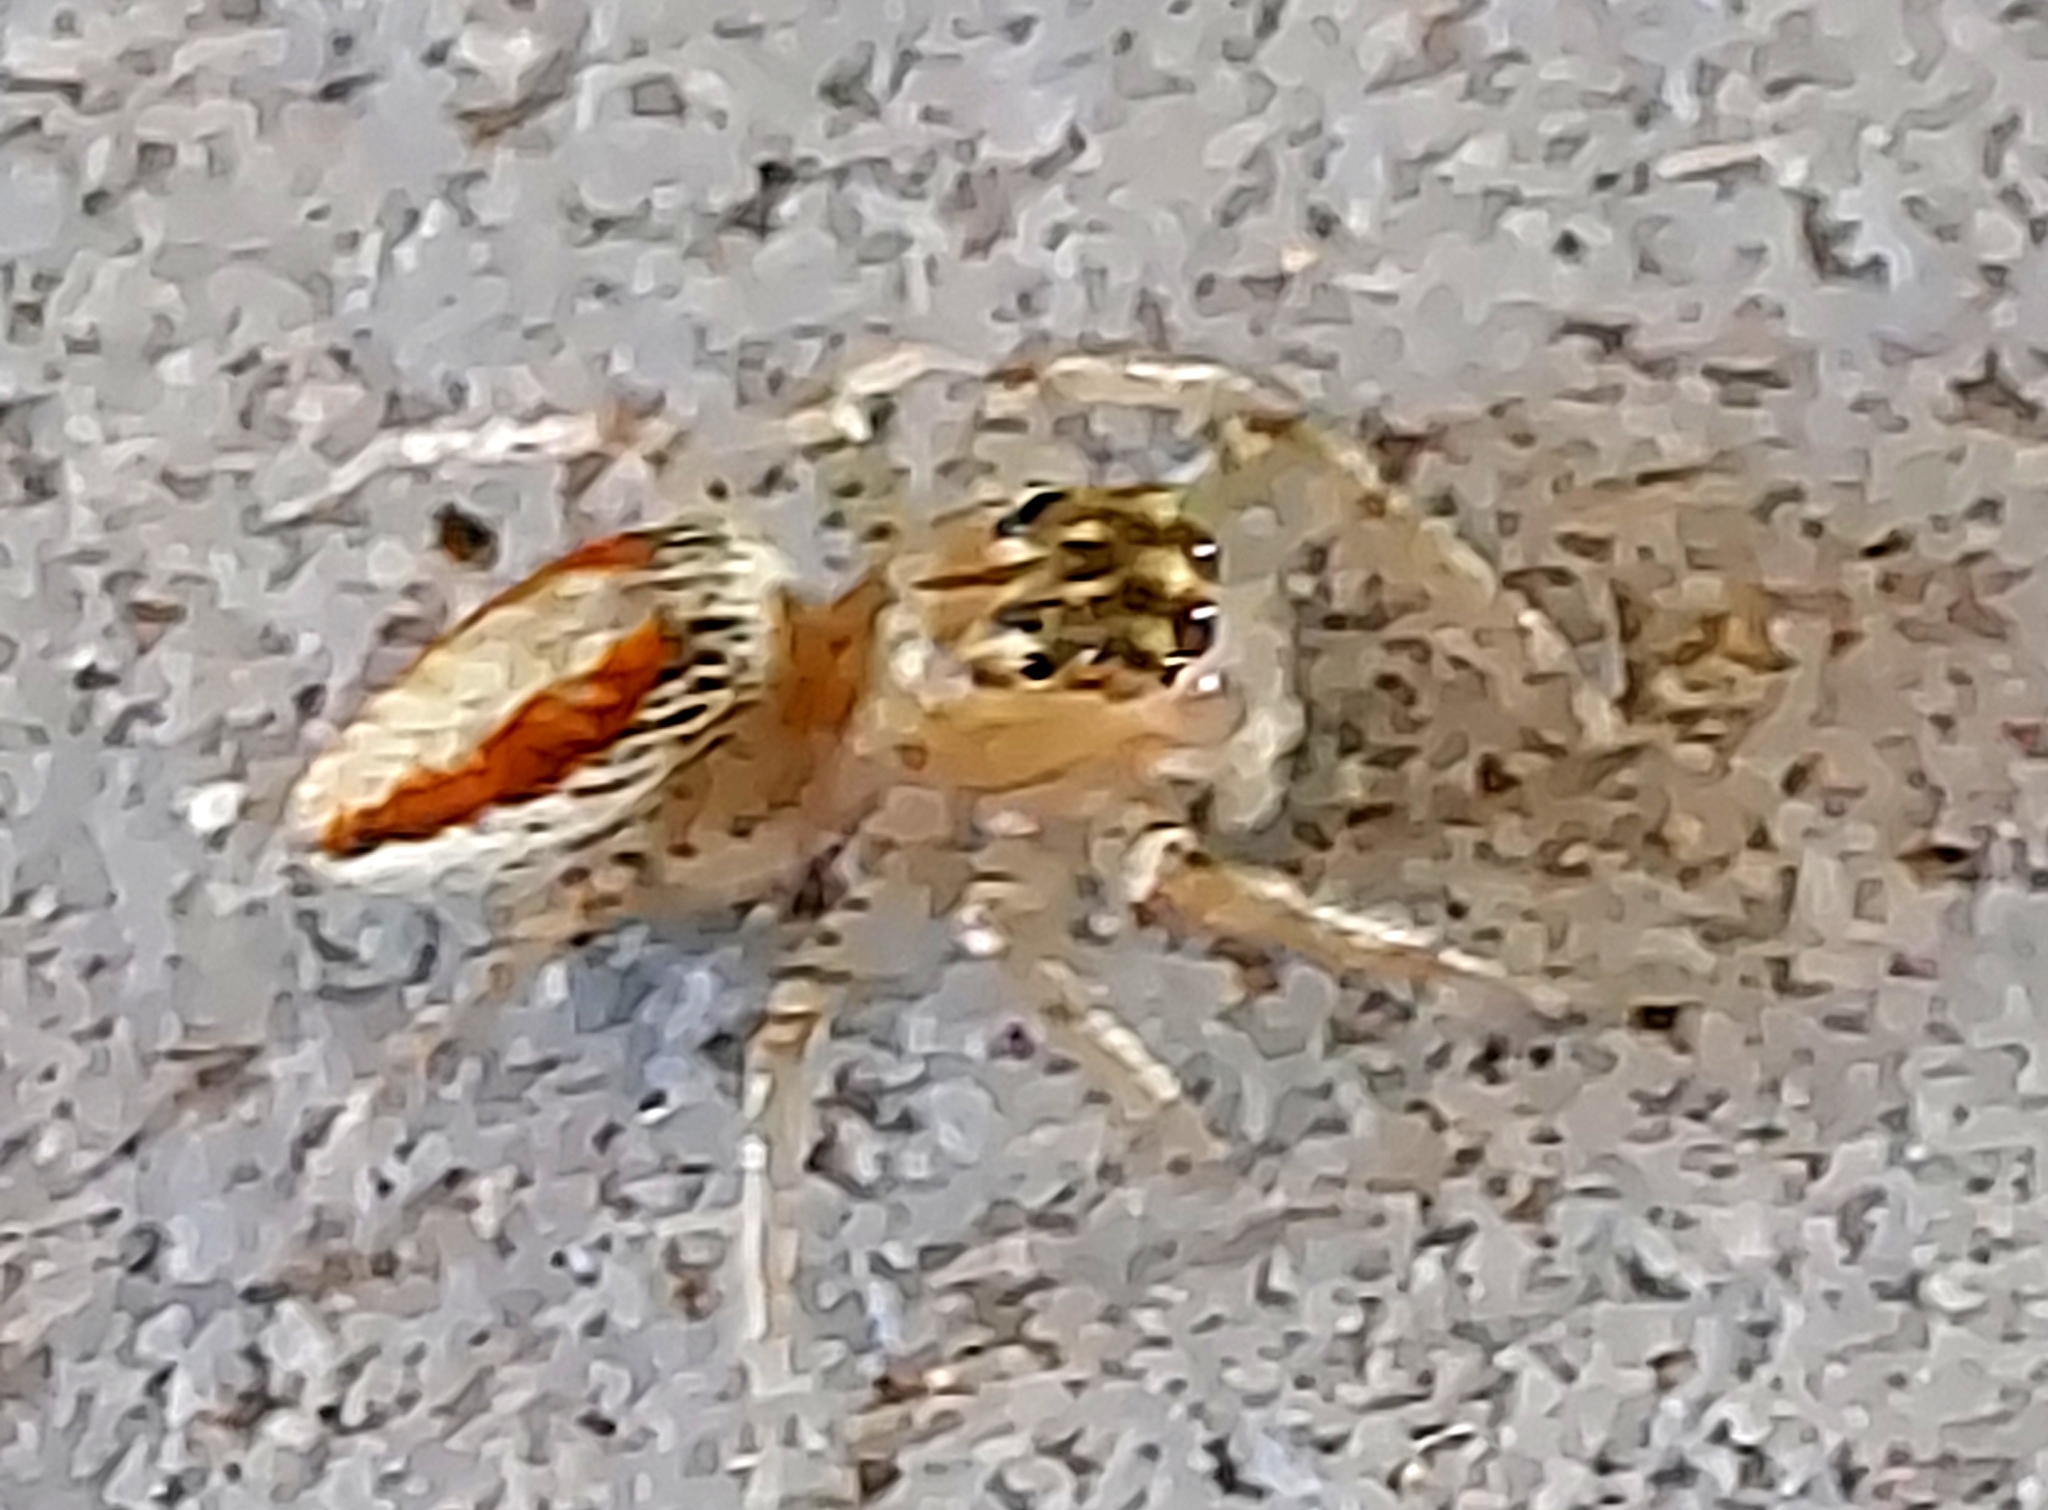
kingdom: Animalia
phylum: Arthropoda
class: Arachnida
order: Araneae
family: Salticidae
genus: Maevia
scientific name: Maevia inclemens
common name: Dimorphic jumper
